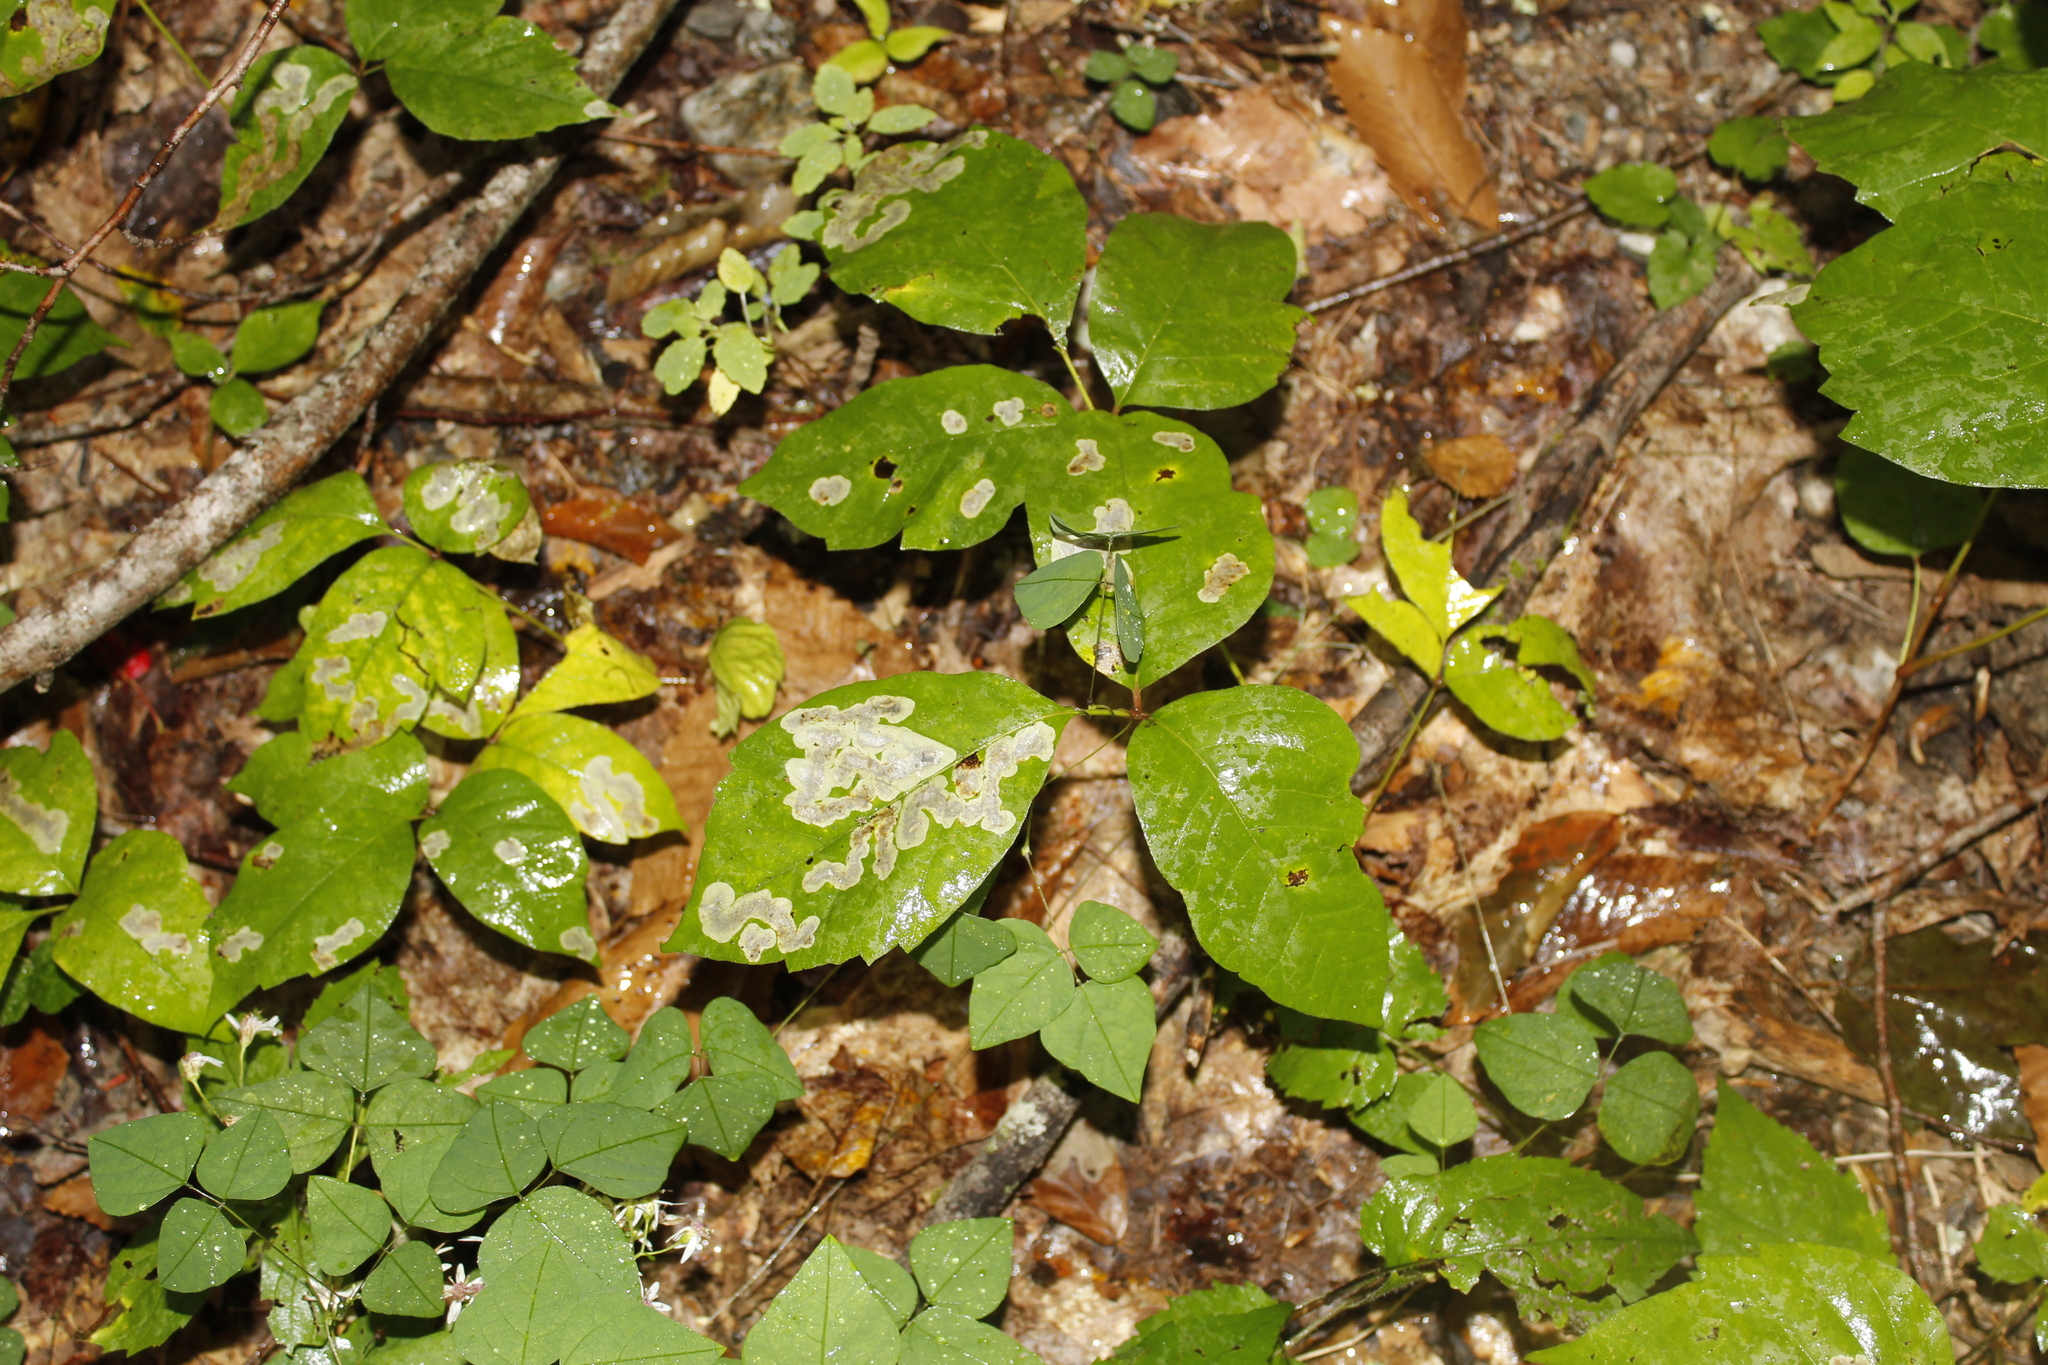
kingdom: Plantae
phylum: Tracheophyta
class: Magnoliopsida
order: Sapindales
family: Anacardiaceae
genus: Toxicodendron
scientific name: Toxicodendron radicans
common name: Poison ivy
